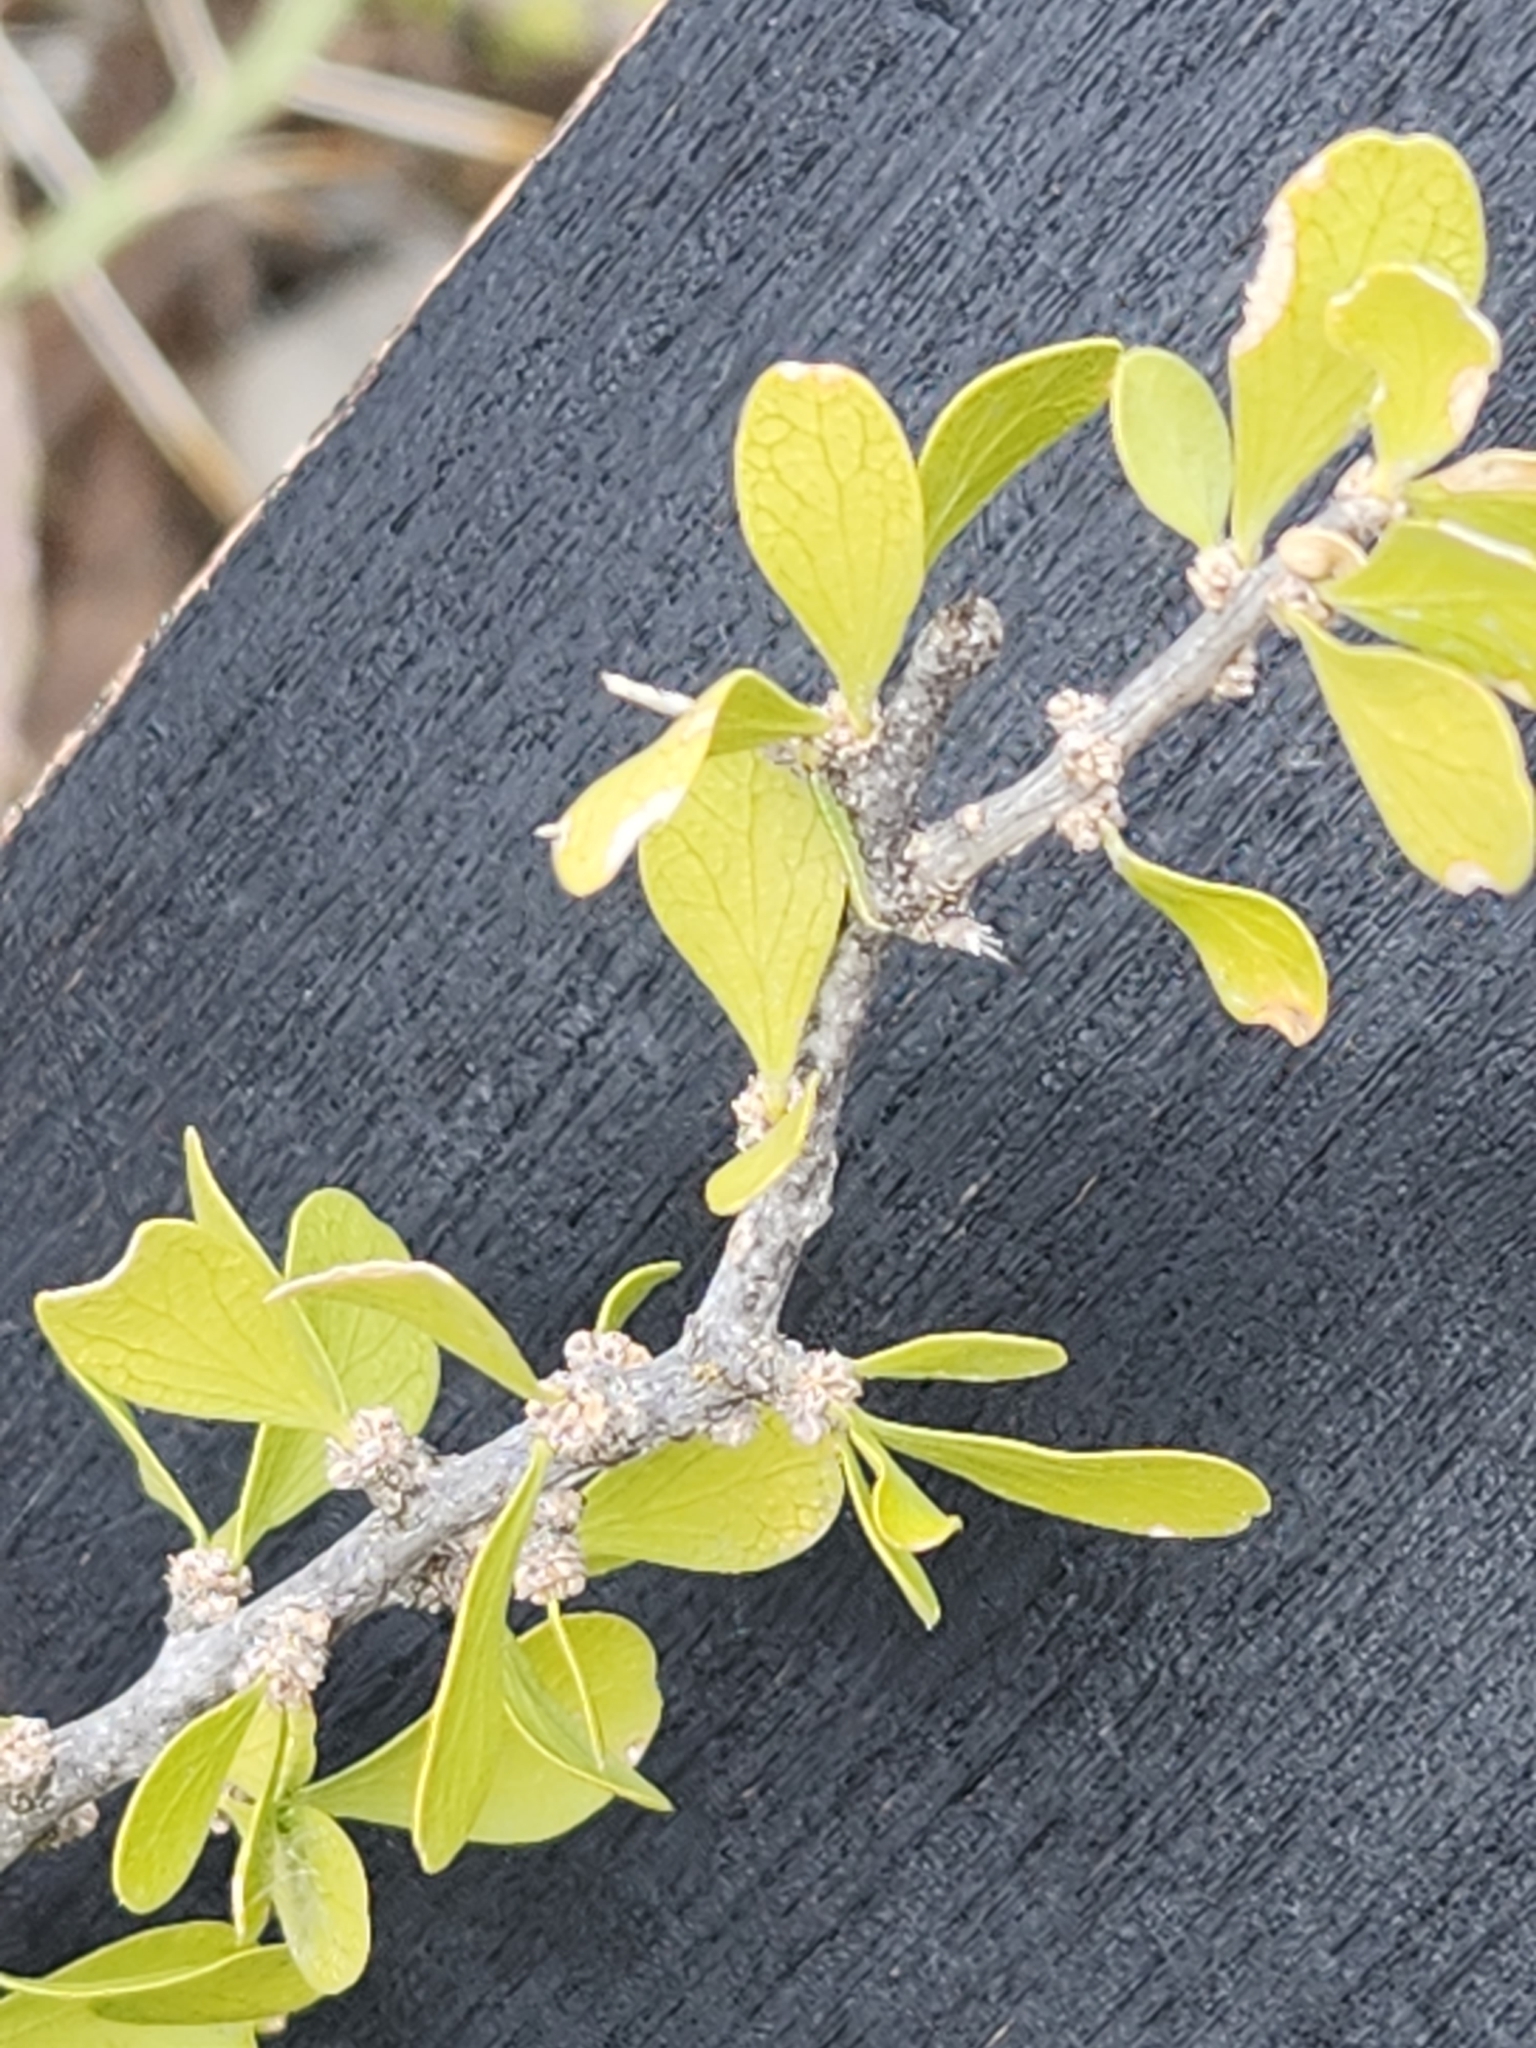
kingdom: Plantae
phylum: Tracheophyta
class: Magnoliopsida
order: Celastrales
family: Celastraceae
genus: Schaefferia
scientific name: Schaefferia cuneifolia
